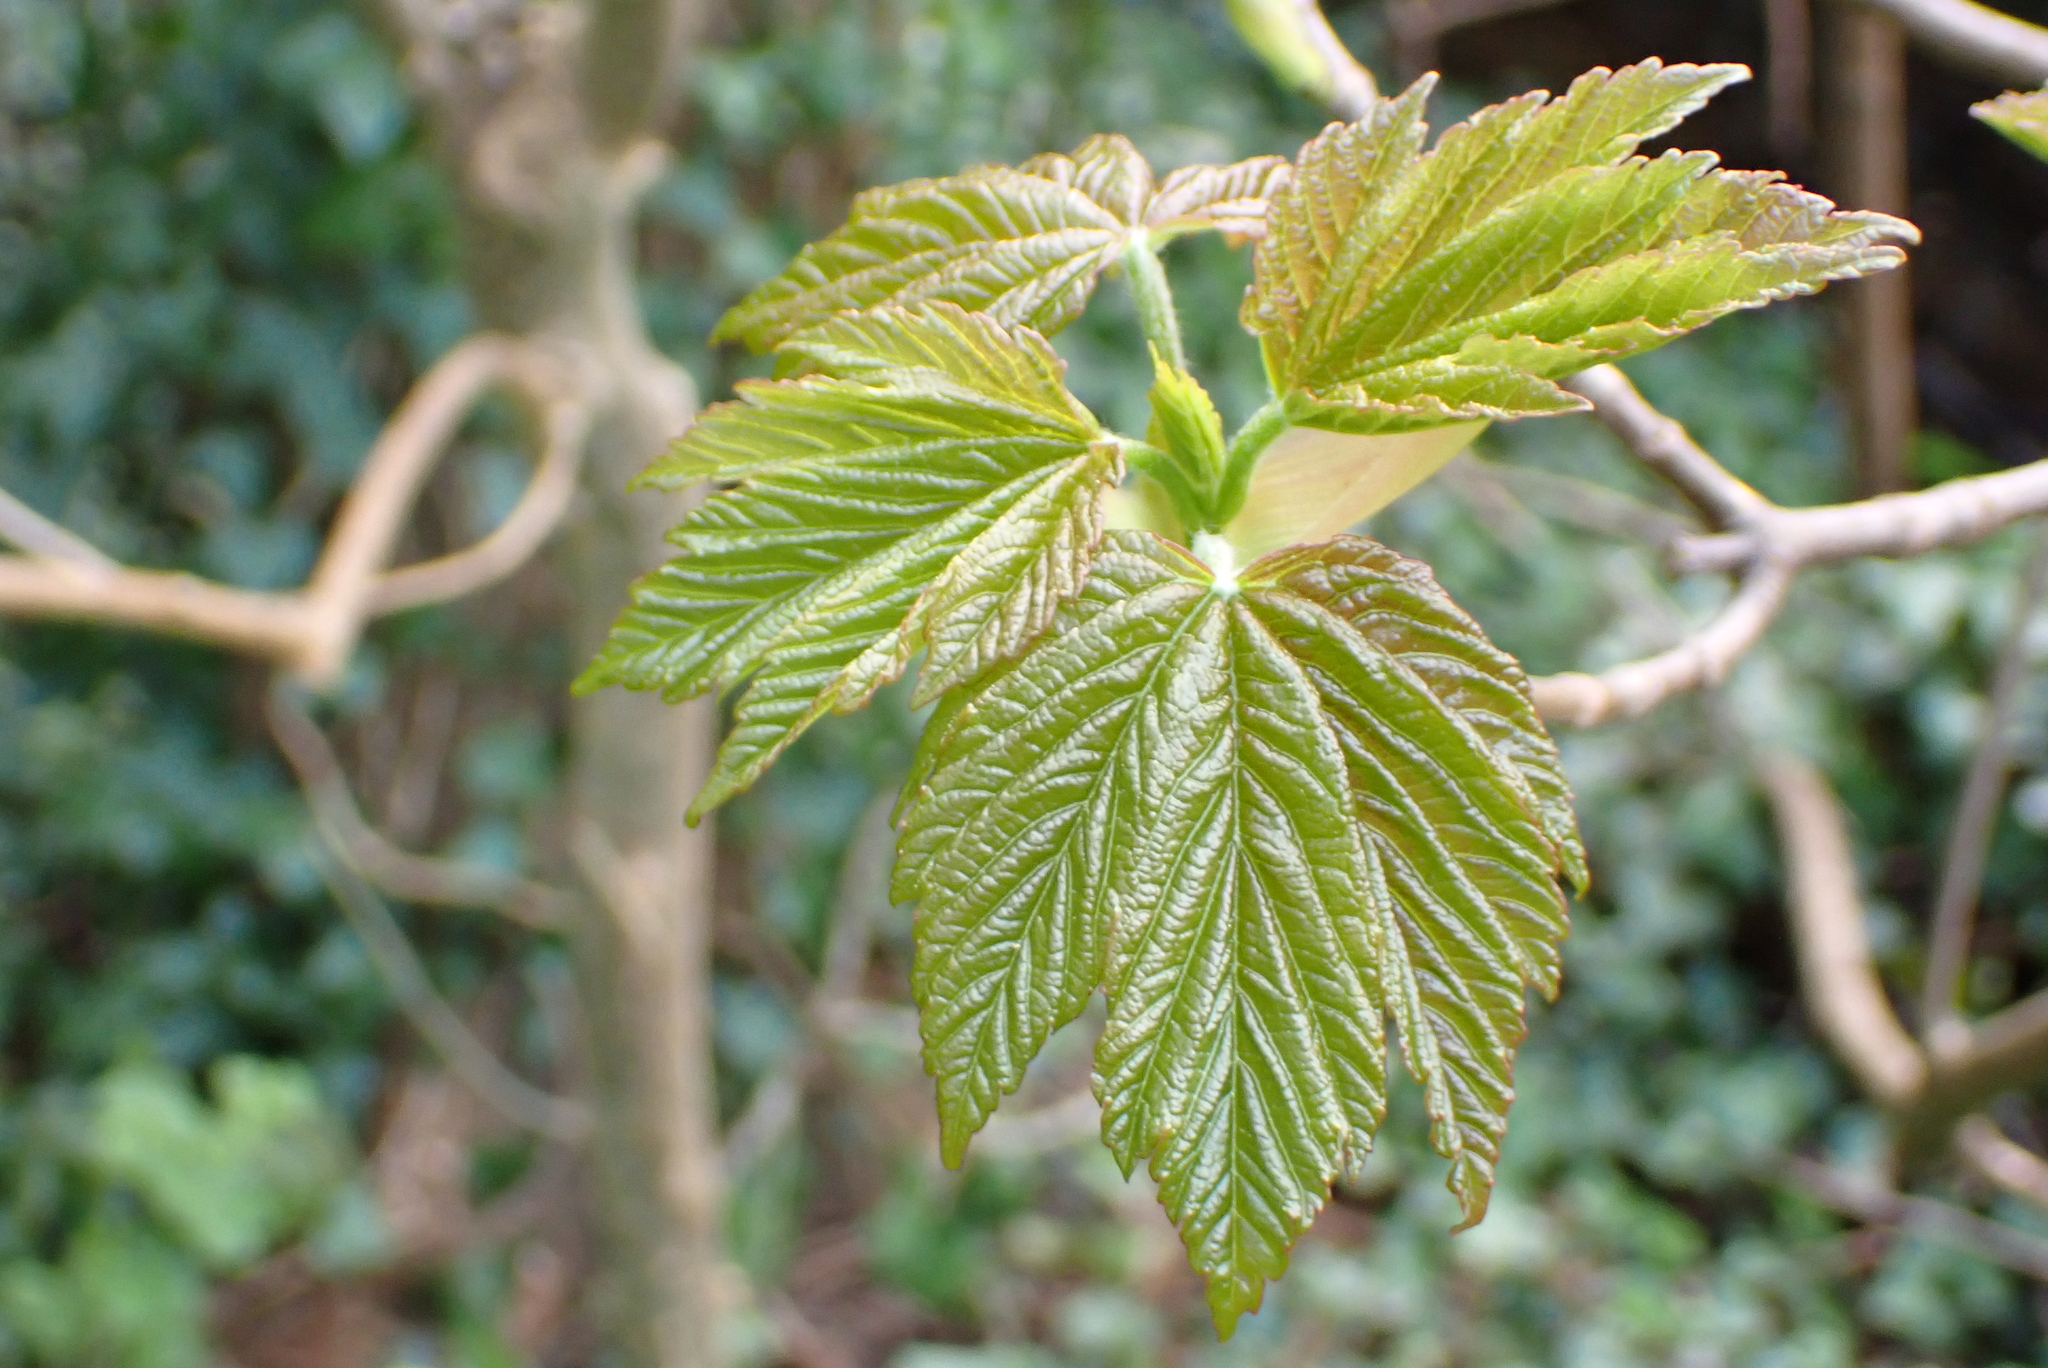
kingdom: Plantae
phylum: Tracheophyta
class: Magnoliopsida
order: Sapindales
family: Sapindaceae
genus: Acer
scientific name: Acer pseudoplatanus
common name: Sycamore
